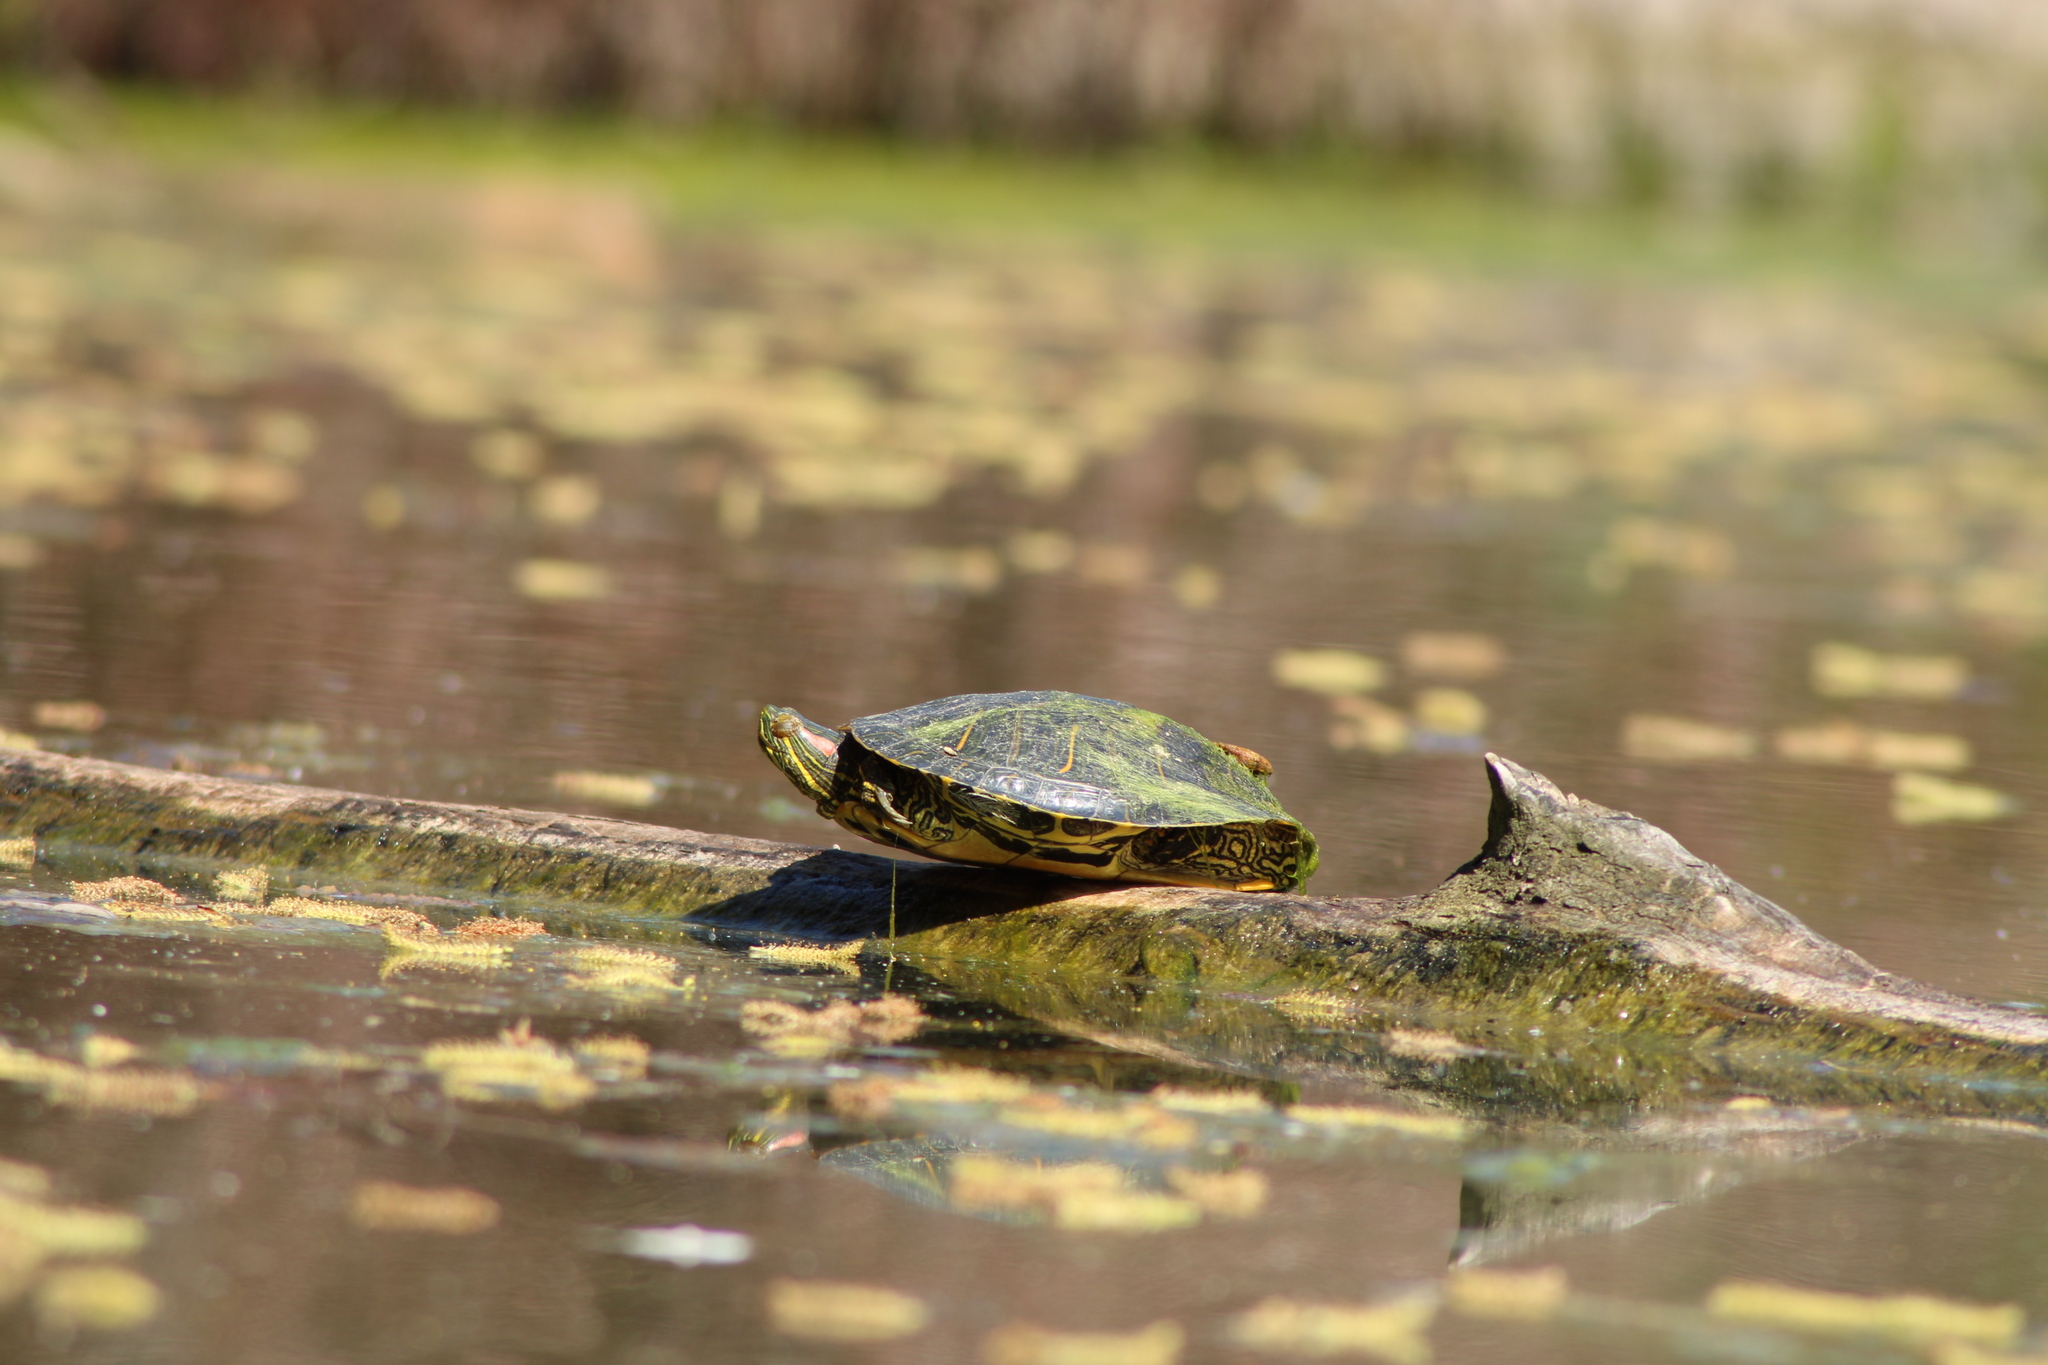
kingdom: Animalia
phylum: Chordata
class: Testudines
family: Emydidae
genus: Trachemys
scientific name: Trachemys scripta
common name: Slider
